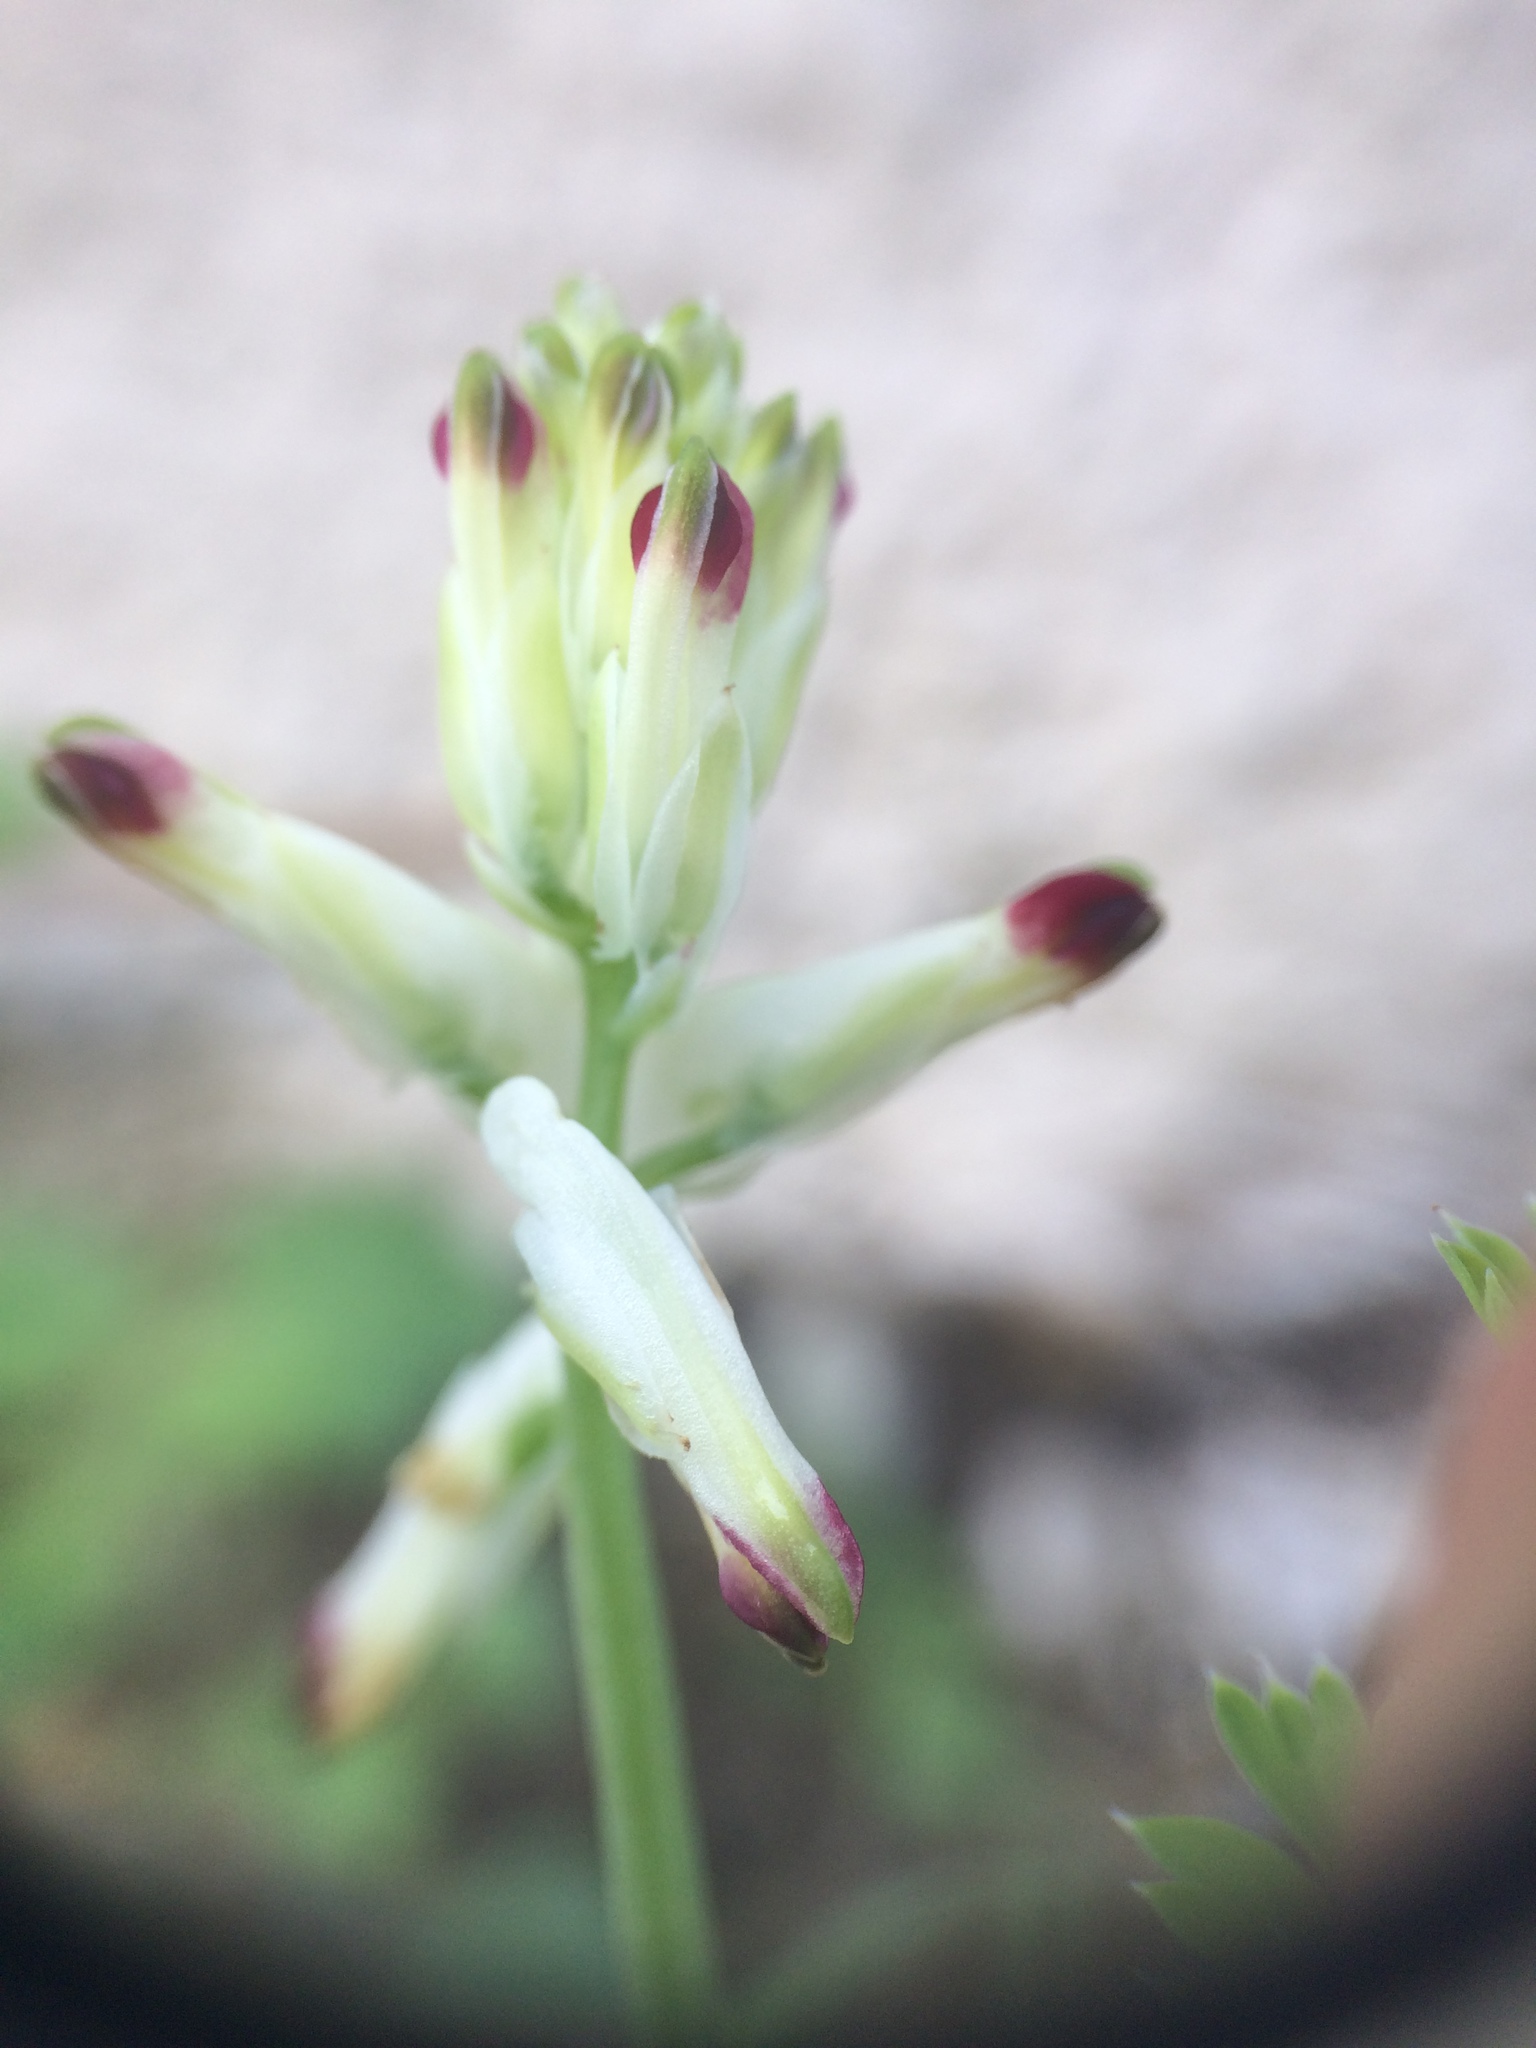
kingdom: Plantae
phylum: Tracheophyta
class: Magnoliopsida
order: Ranunculales
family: Papaveraceae
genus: Fumaria
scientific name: Fumaria capreolata
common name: White ramping-fumitory
